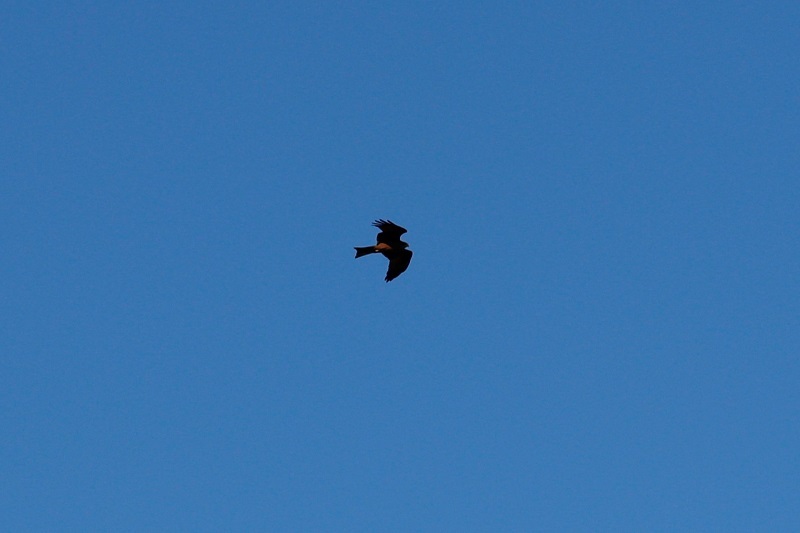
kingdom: Animalia
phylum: Chordata
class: Aves
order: Accipitriformes
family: Accipitridae
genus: Milvus
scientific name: Milvus migrans
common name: Black kite
